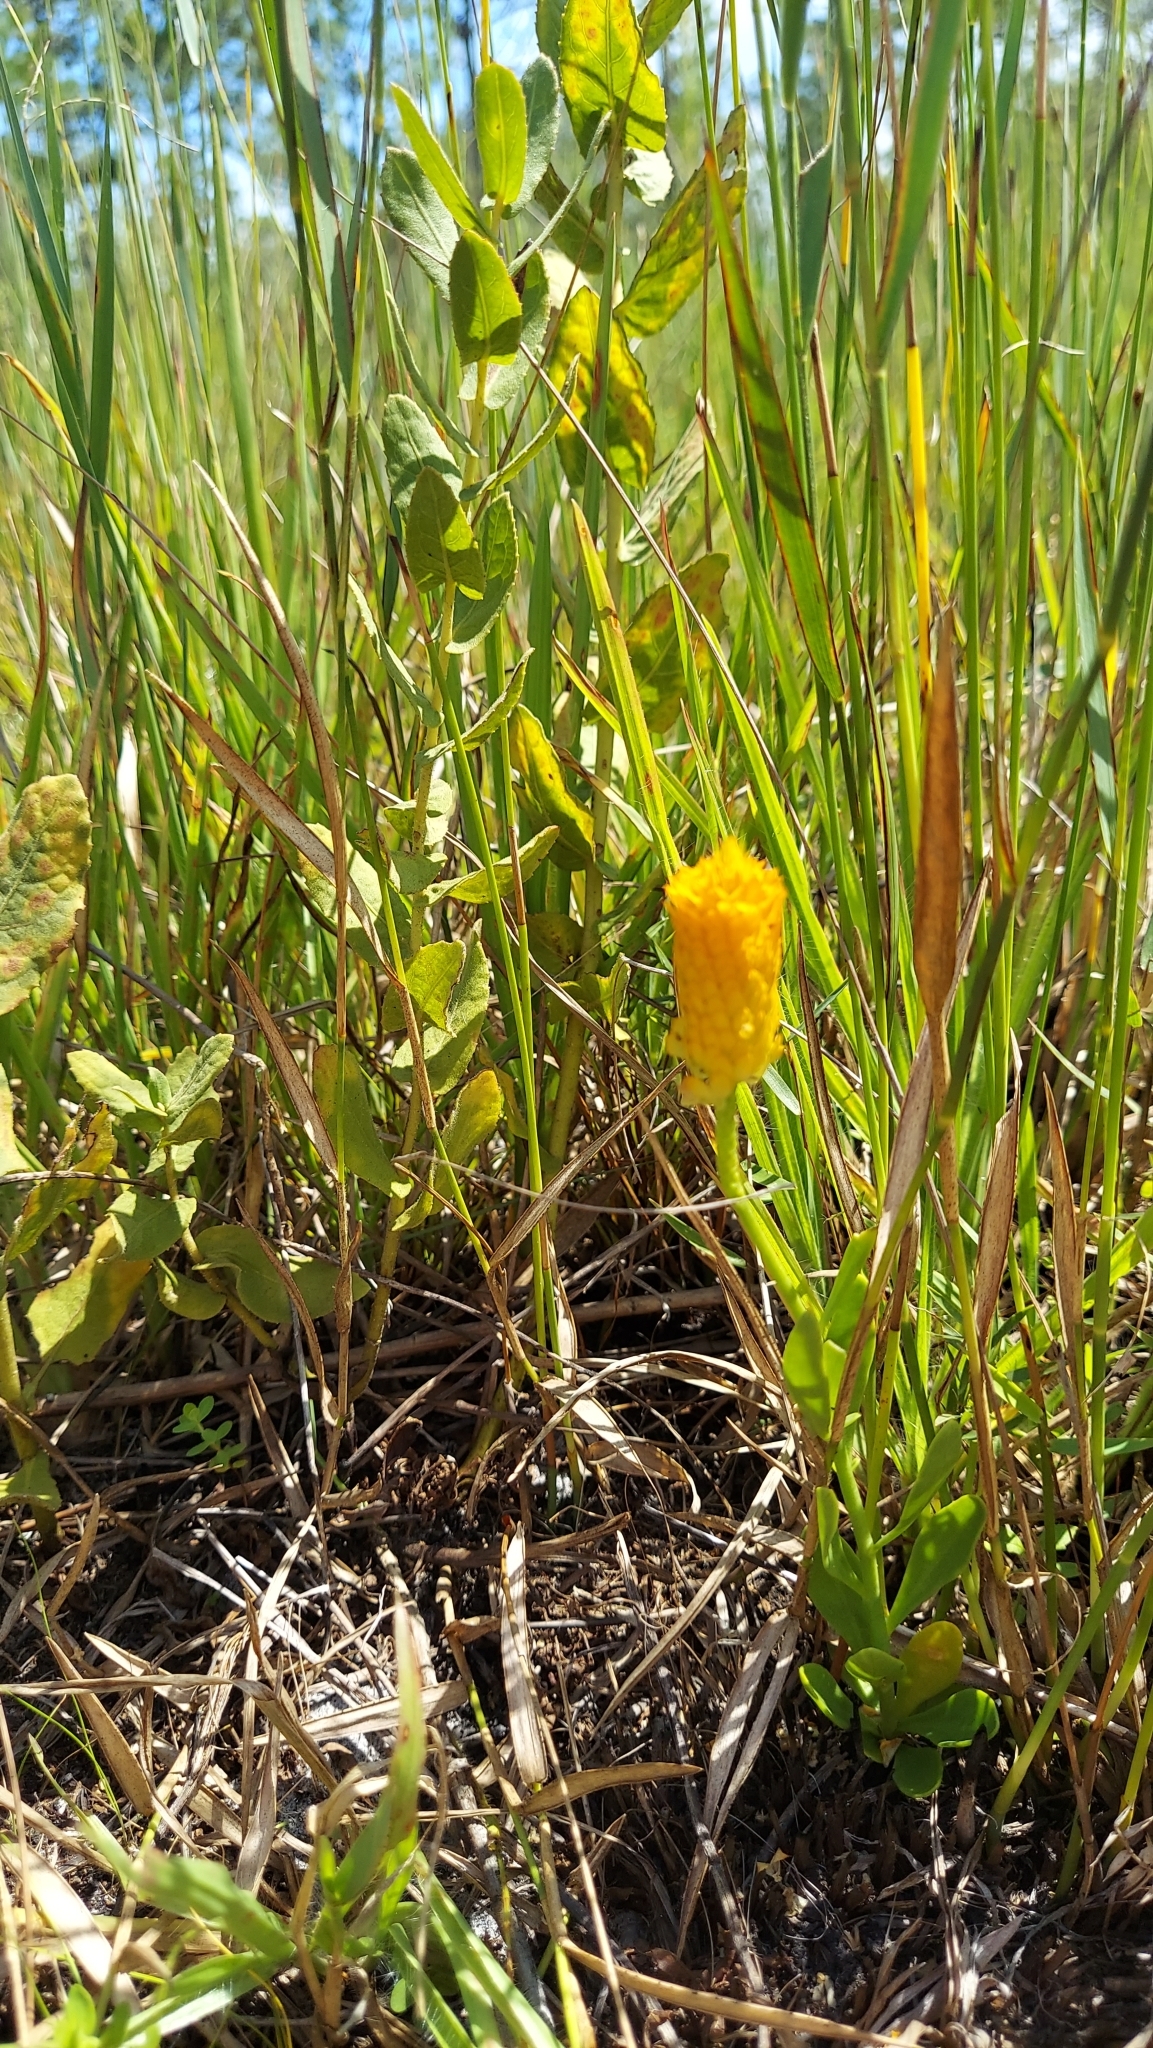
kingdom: Plantae
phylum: Tracheophyta
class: Magnoliopsida
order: Fabales
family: Polygalaceae
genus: Polygala
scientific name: Polygala lutea
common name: Orange milkwort
